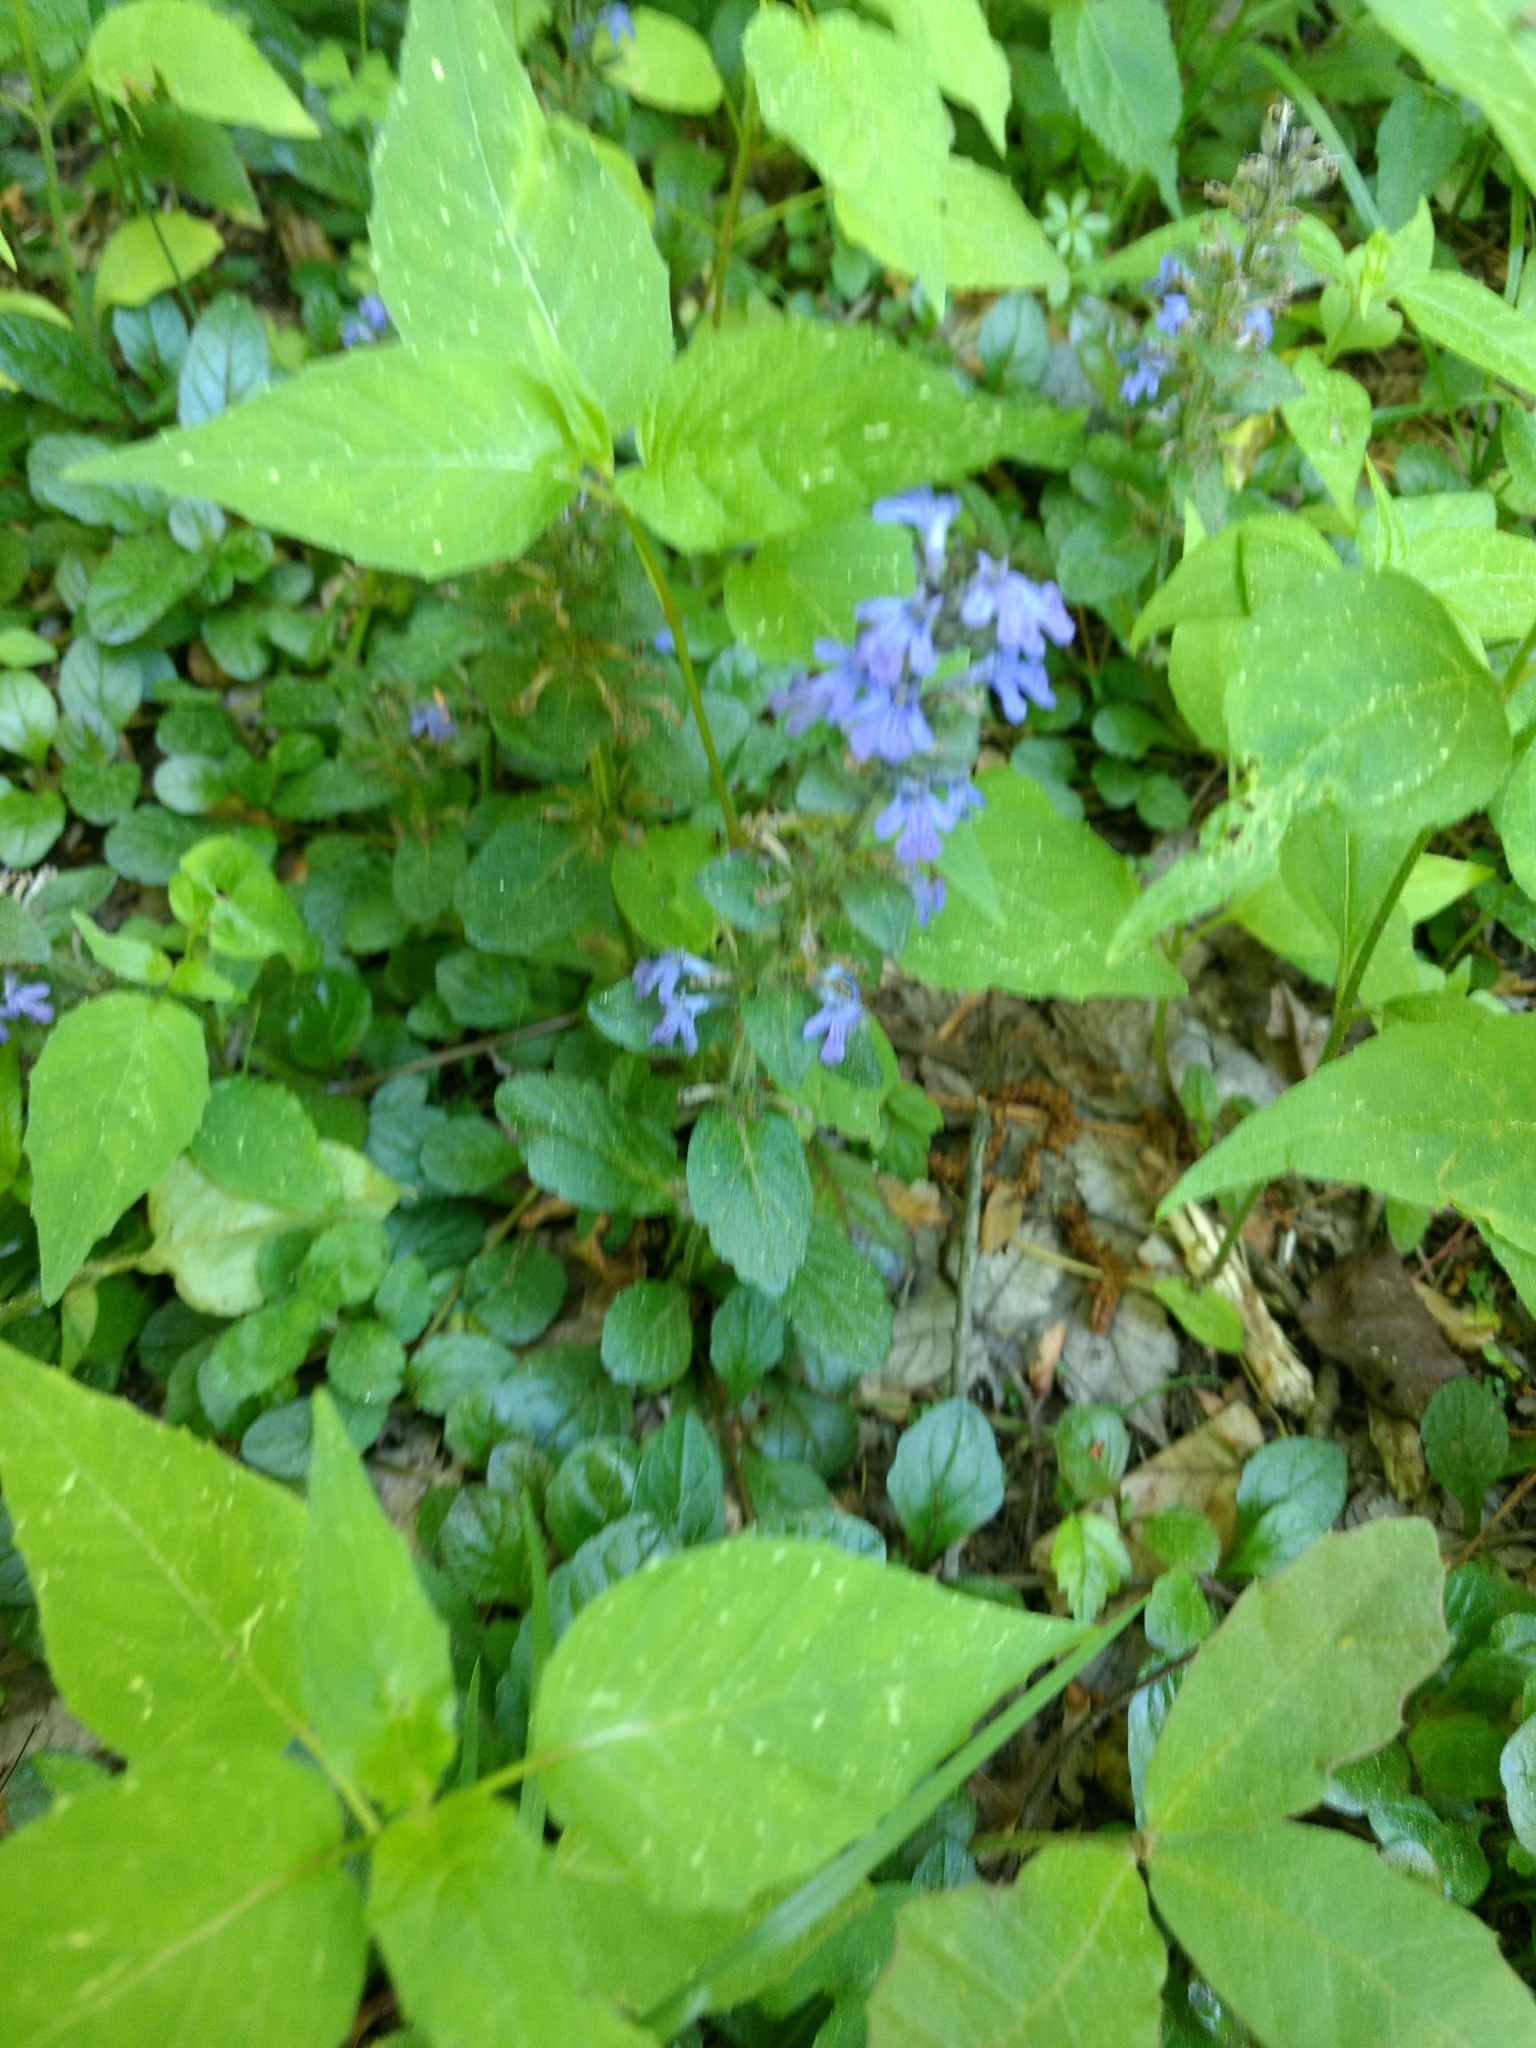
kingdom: Plantae
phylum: Tracheophyta
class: Magnoliopsida
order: Lamiales
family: Lamiaceae
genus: Ajuga
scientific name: Ajuga reptans
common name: Bugle
